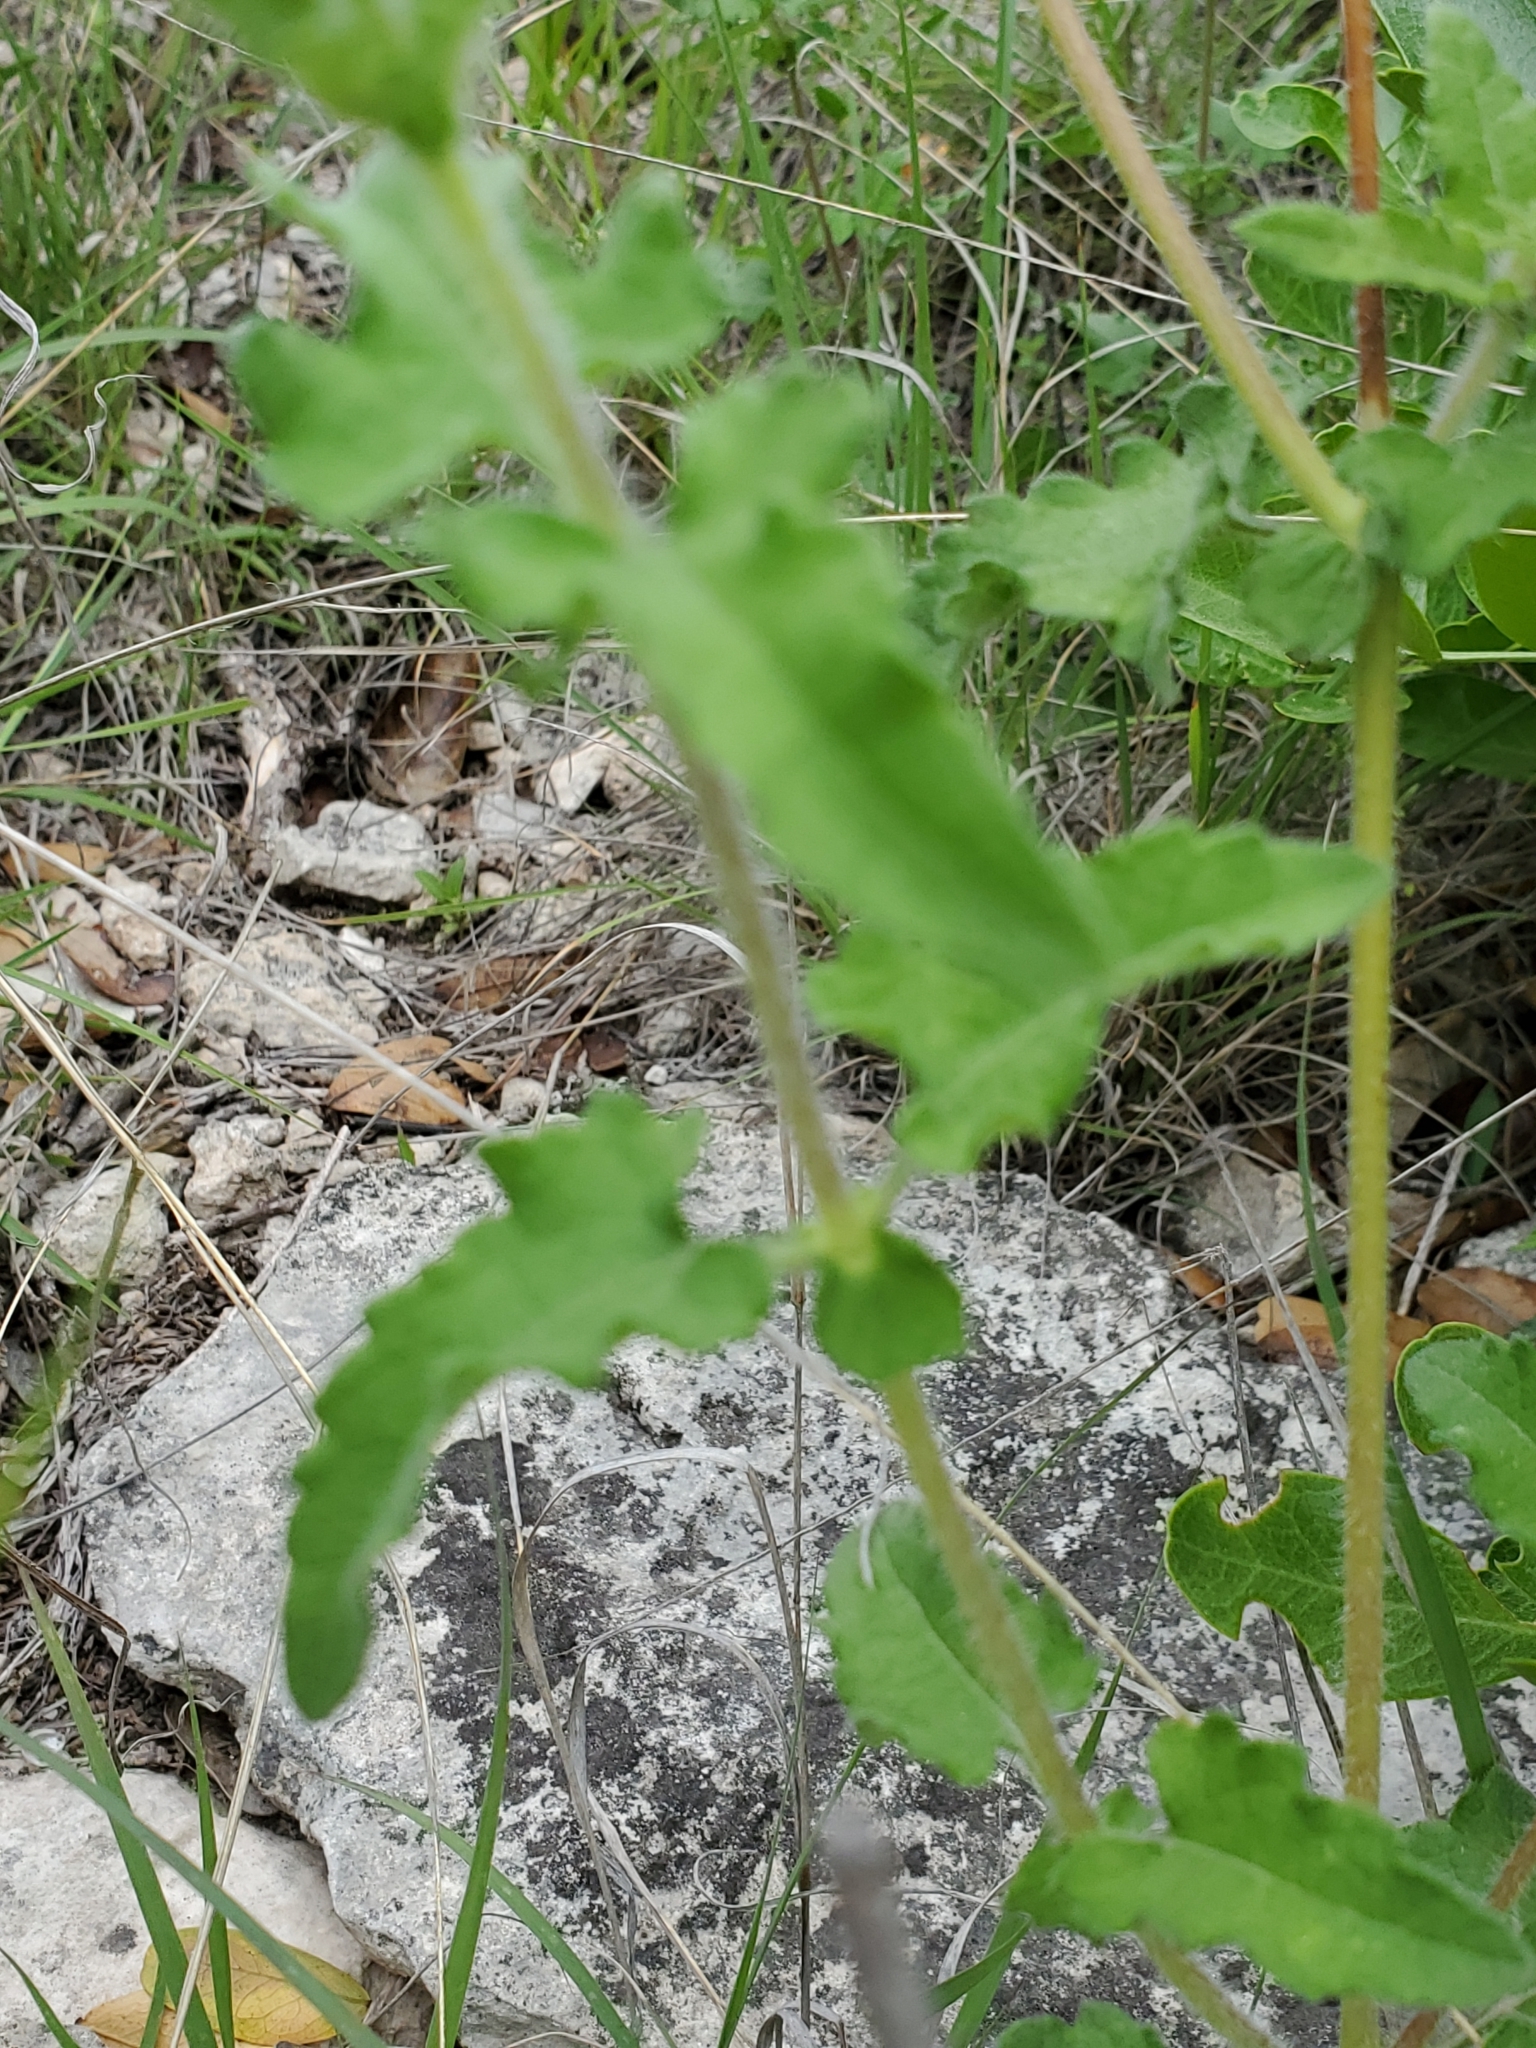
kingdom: Plantae
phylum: Tracheophyta
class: Magnoliopsida
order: Asterales
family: Asteraceae
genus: Simsia
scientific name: Simsia calva
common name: Awnless bush-sunflower
